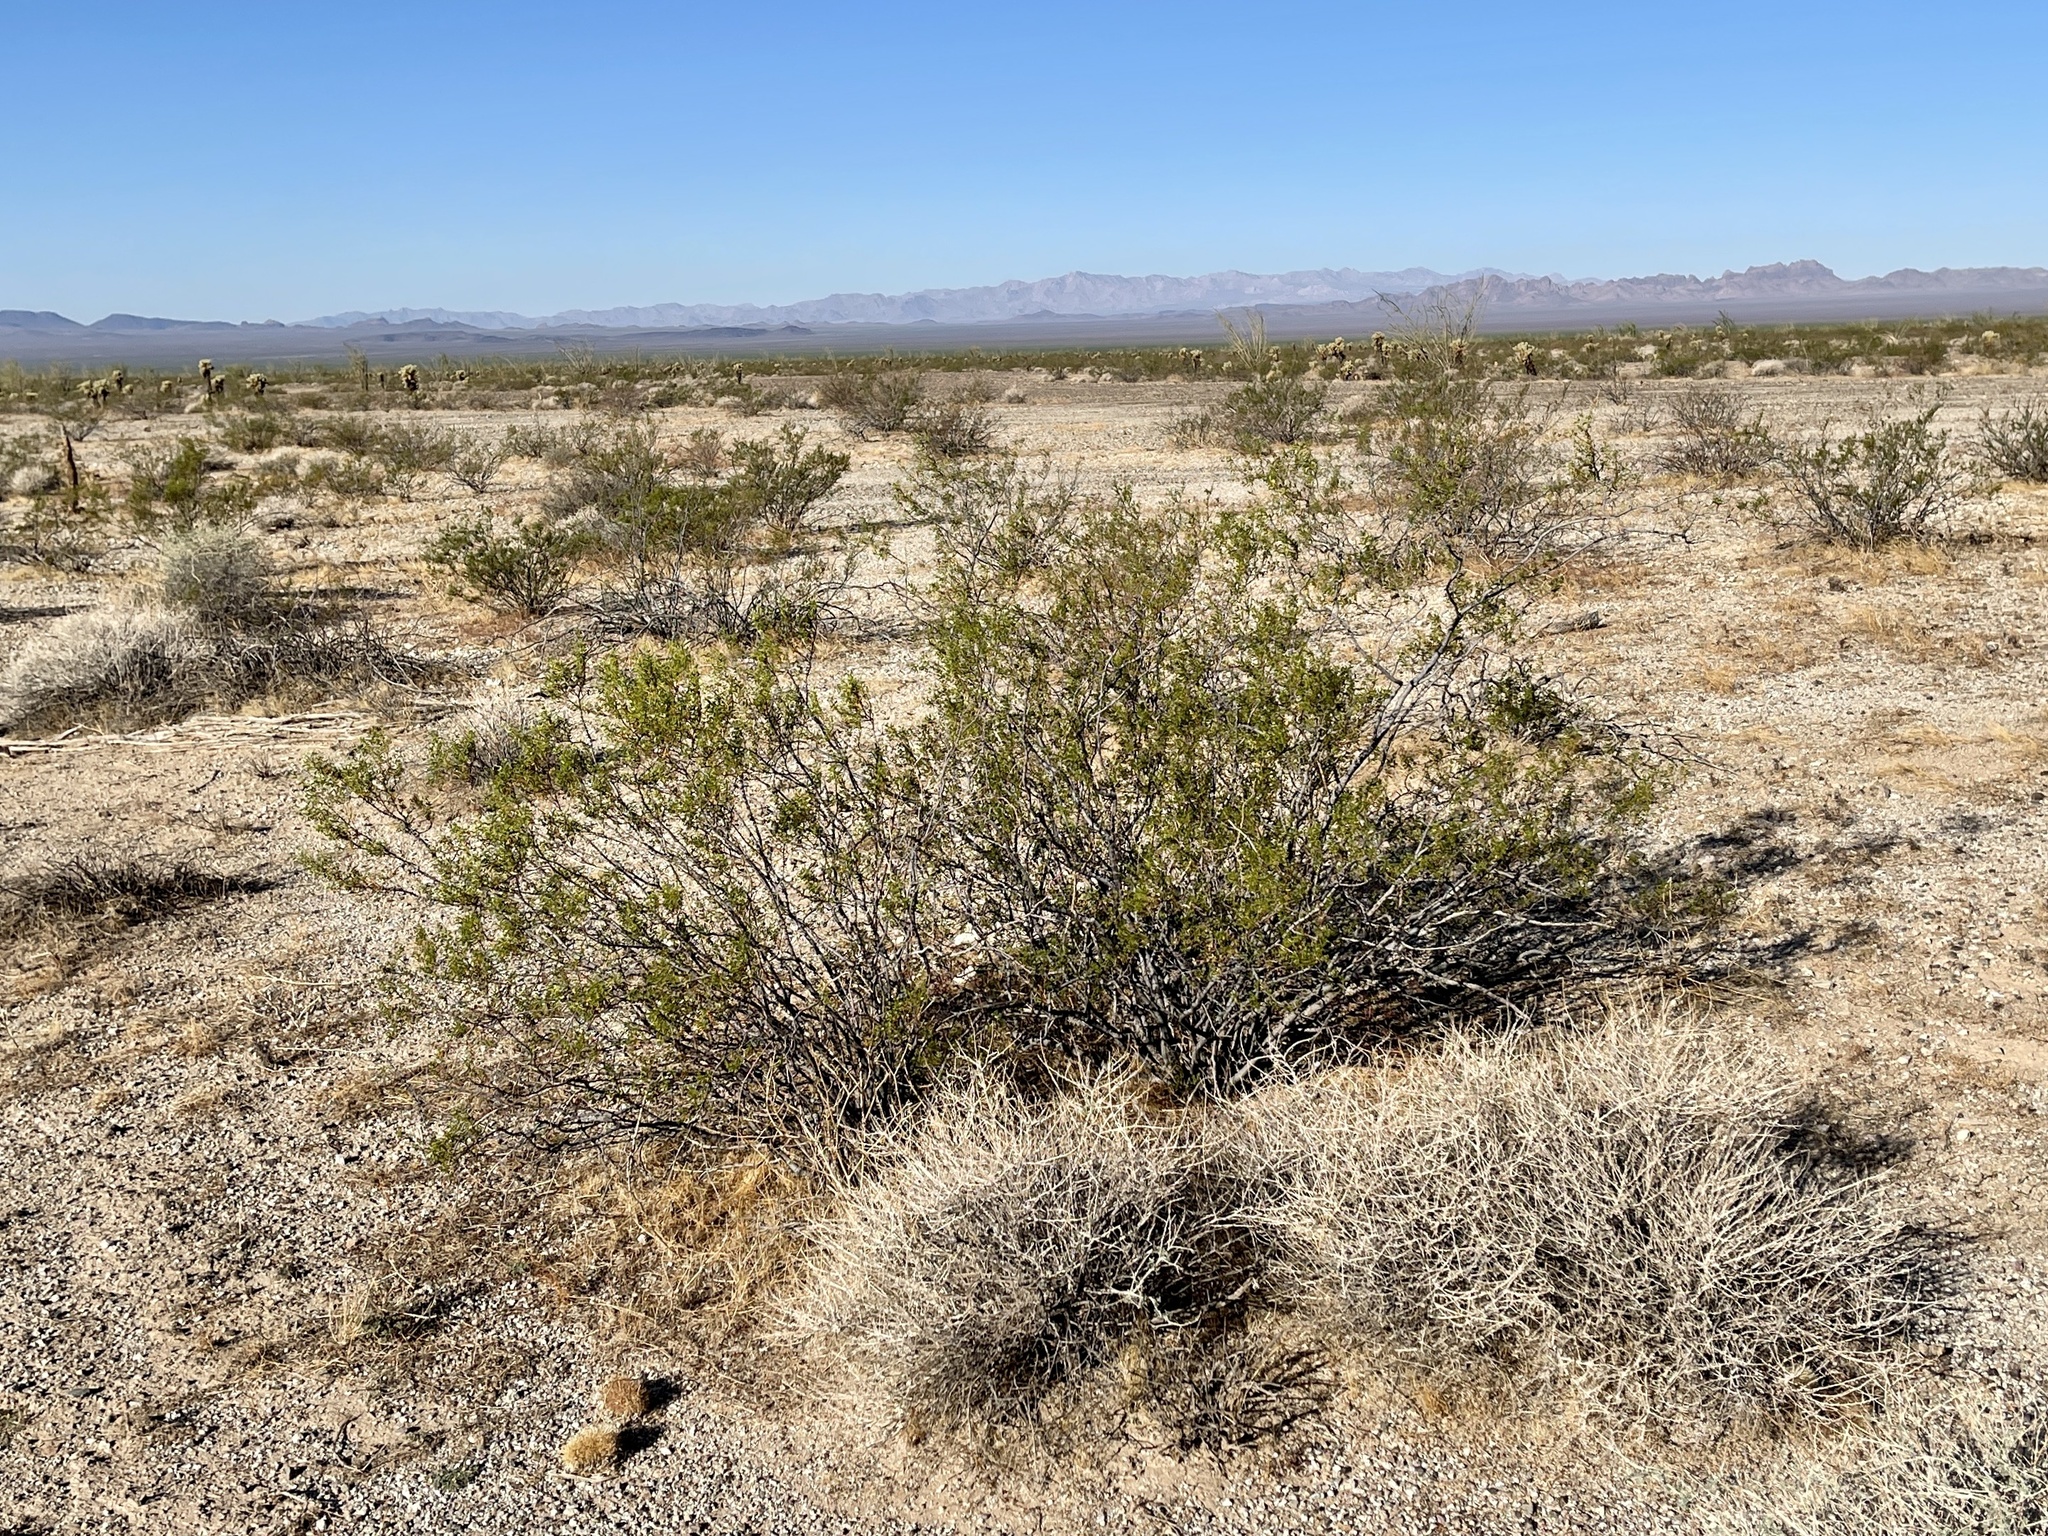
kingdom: Plantae
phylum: Tracheophyta
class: Magnoliopsida
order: Zygophyllales
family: Zygophyllaceae
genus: Larrea
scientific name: Larrea tridentata
